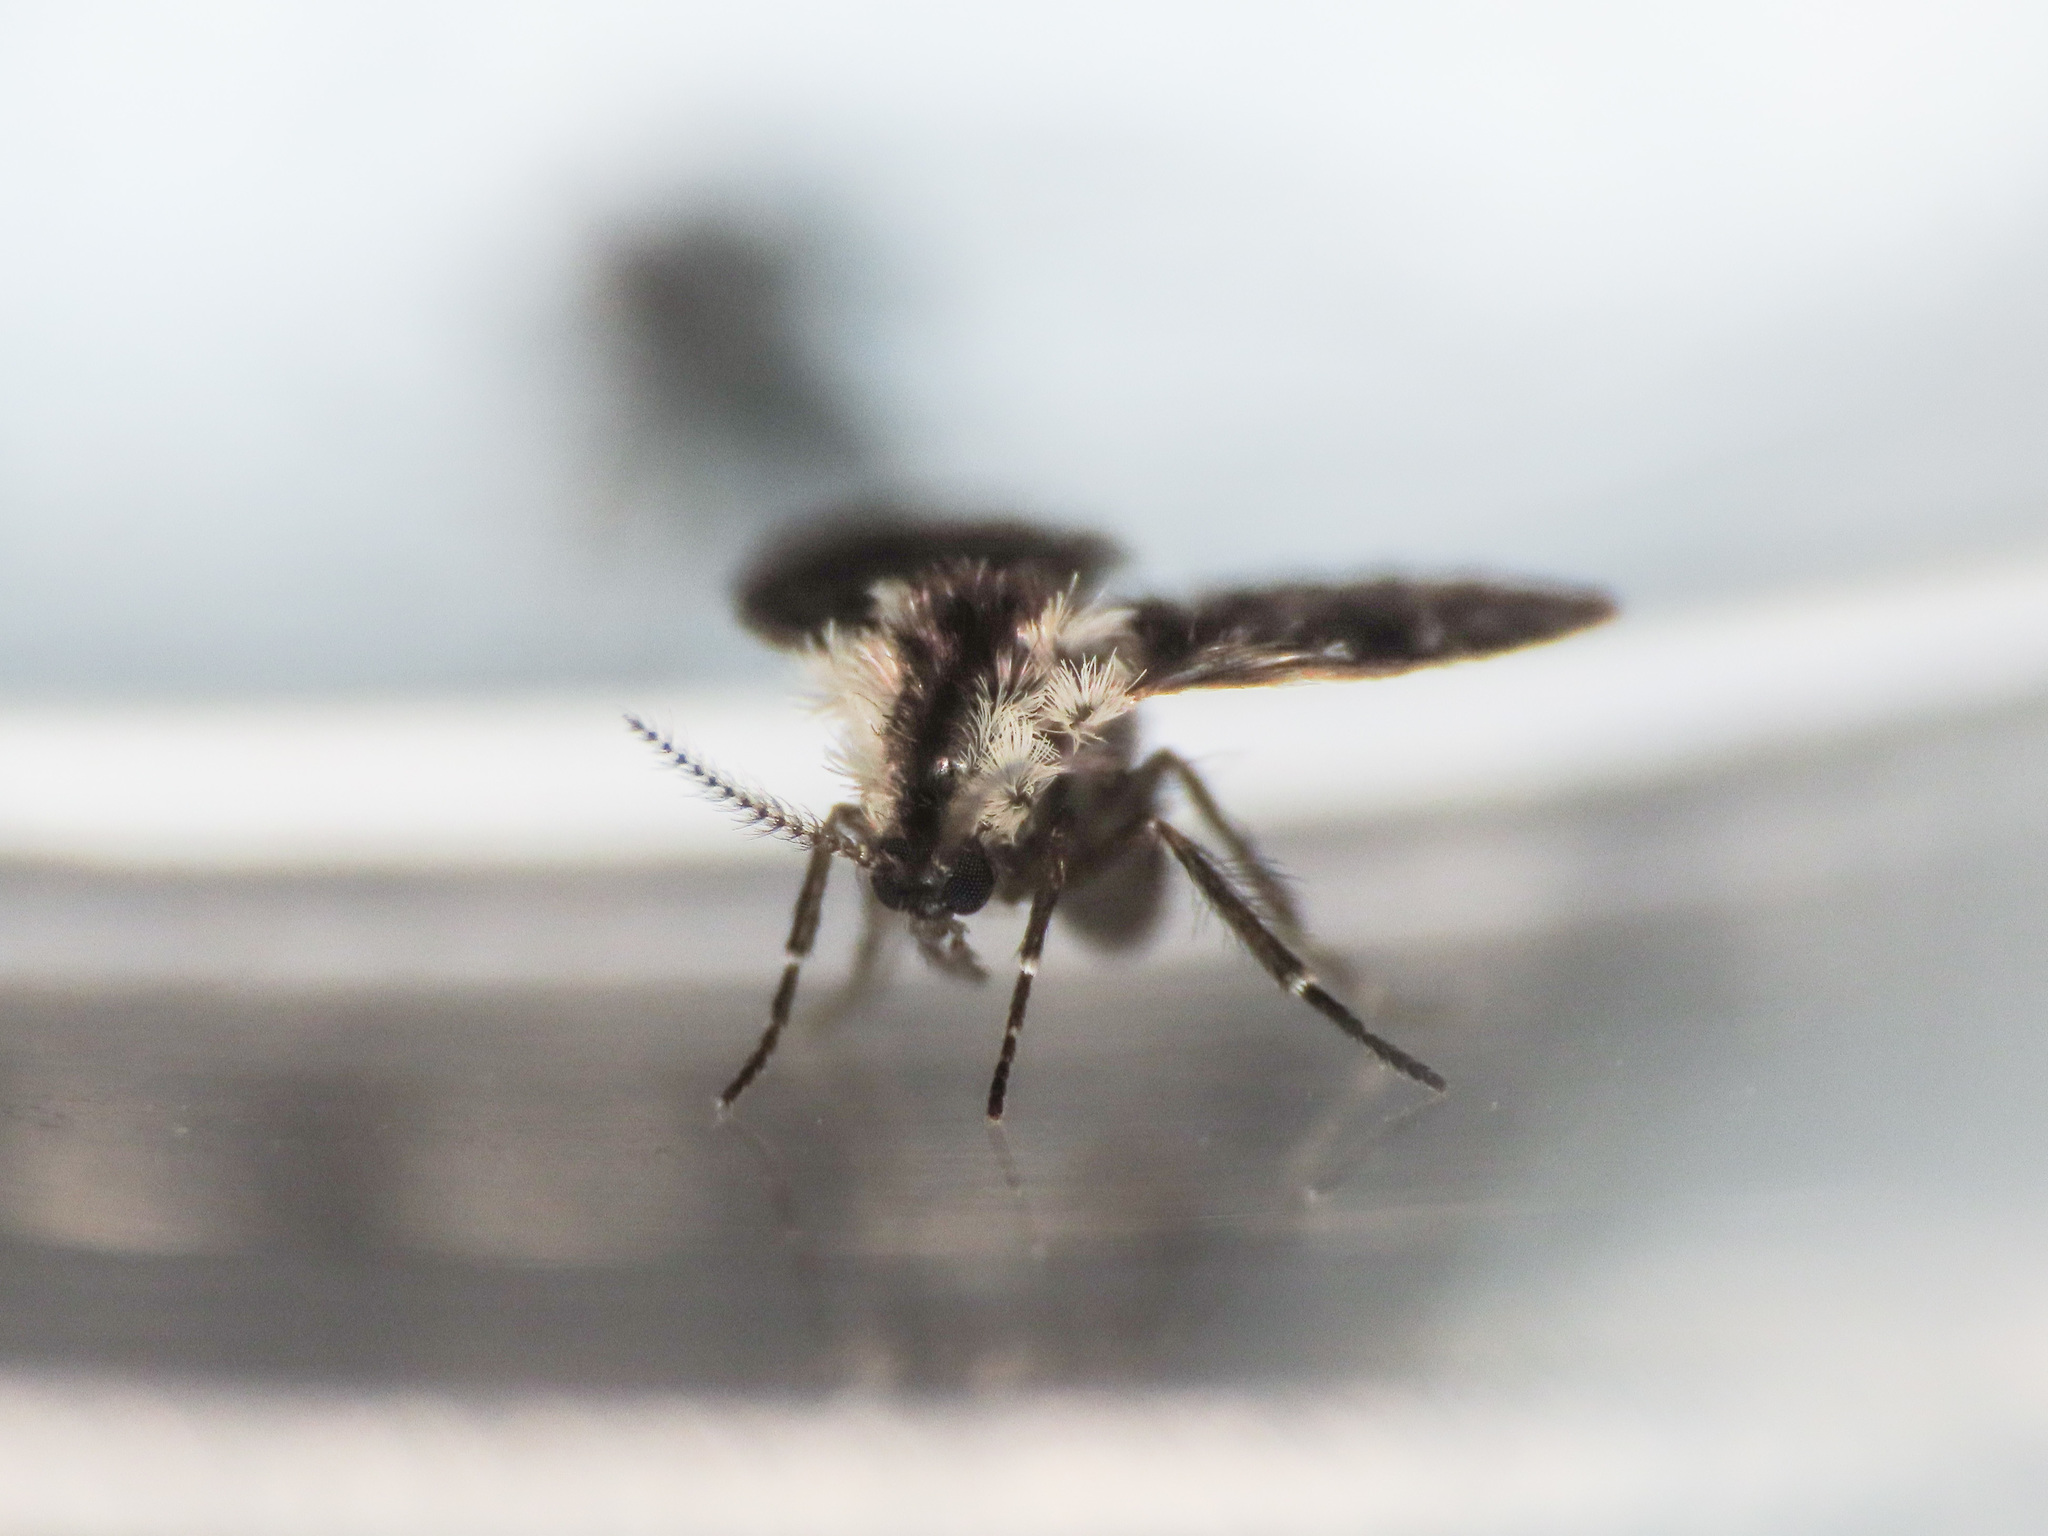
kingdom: Animalia
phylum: Arthropoda
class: Insecta
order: Diptera
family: Psychodidae
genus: Lepiseodina
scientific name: Lepiseodina
